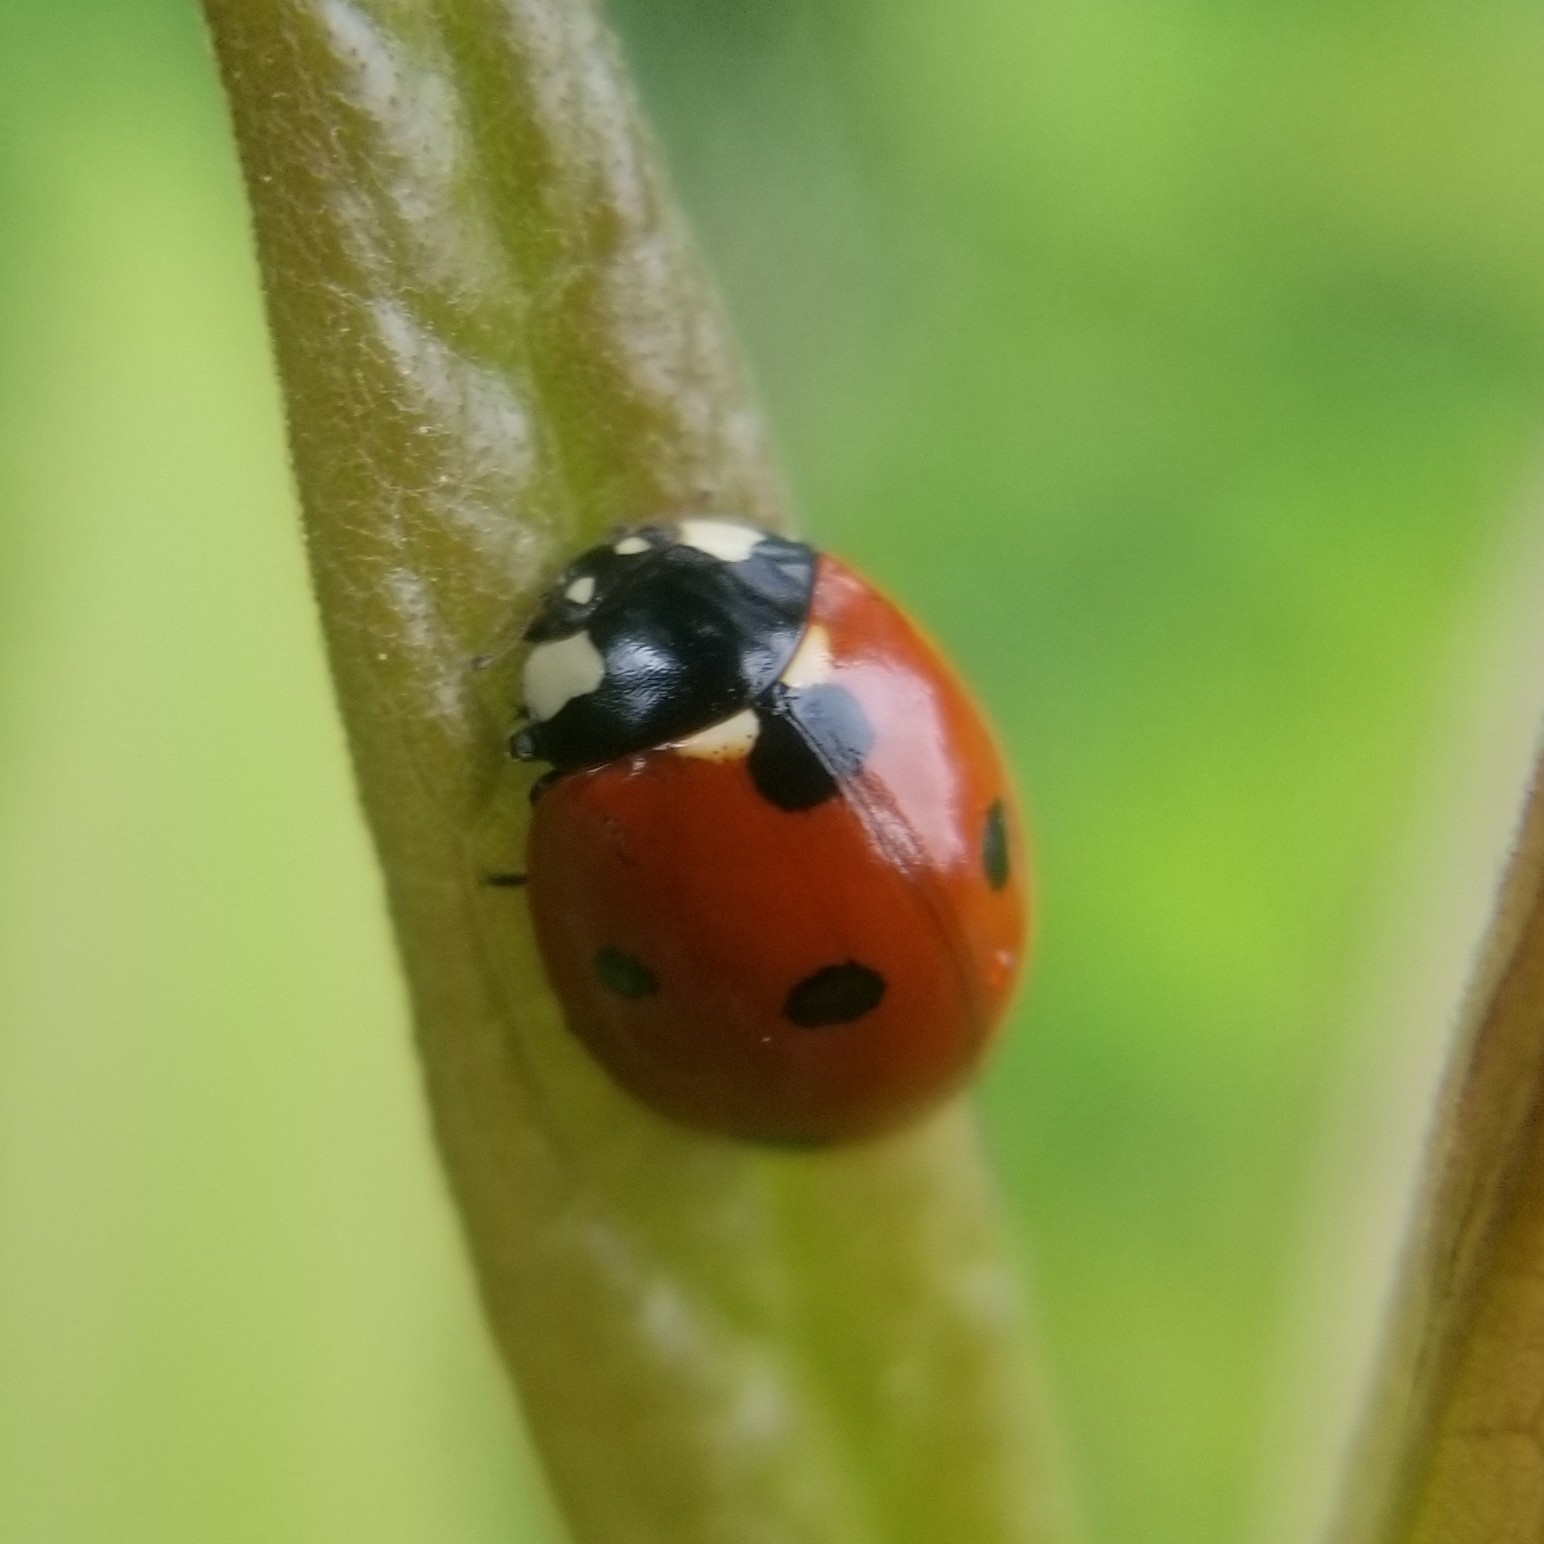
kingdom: Animalia
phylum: Arthropoda
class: Insecta
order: Coleoptera
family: Coccinellidae
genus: Coccinella
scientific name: Coccinella septempunctata
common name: Sevenspotted lady beetle
